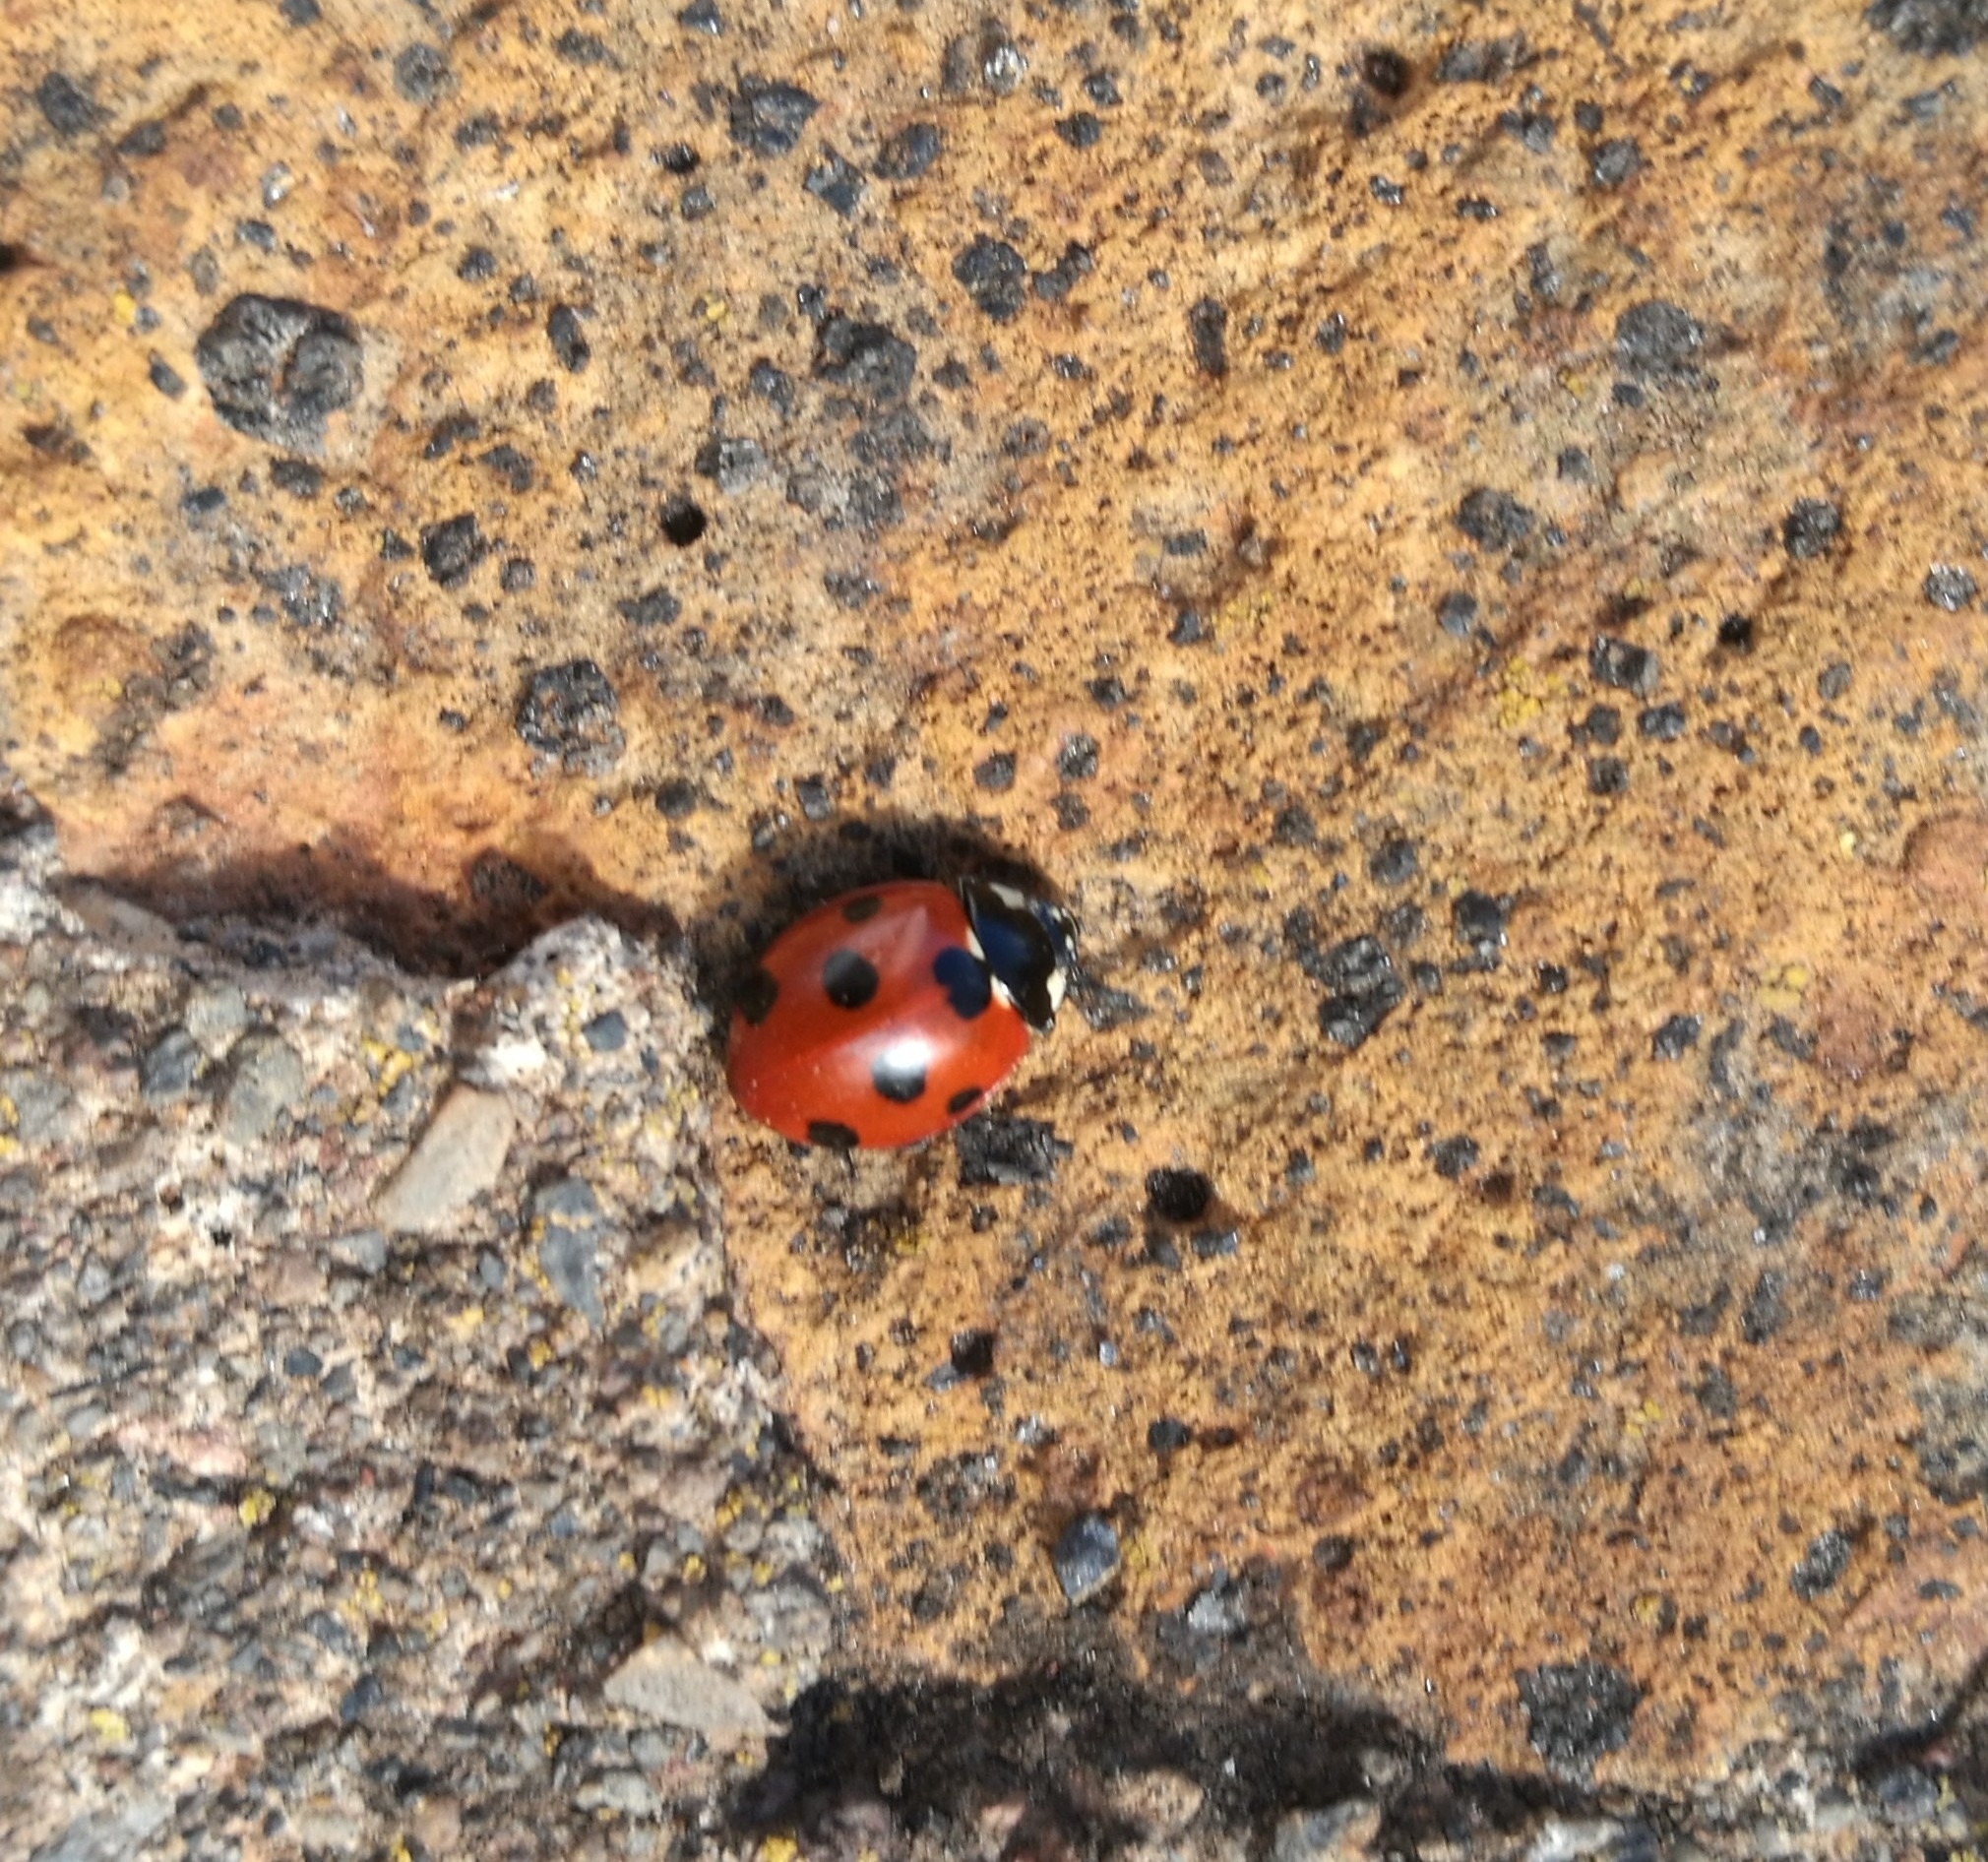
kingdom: Animalia
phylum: Arthropoda
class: Insecta
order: Coleoptera
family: Coccinellidae
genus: Coccinella
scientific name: Coccinella algerica
